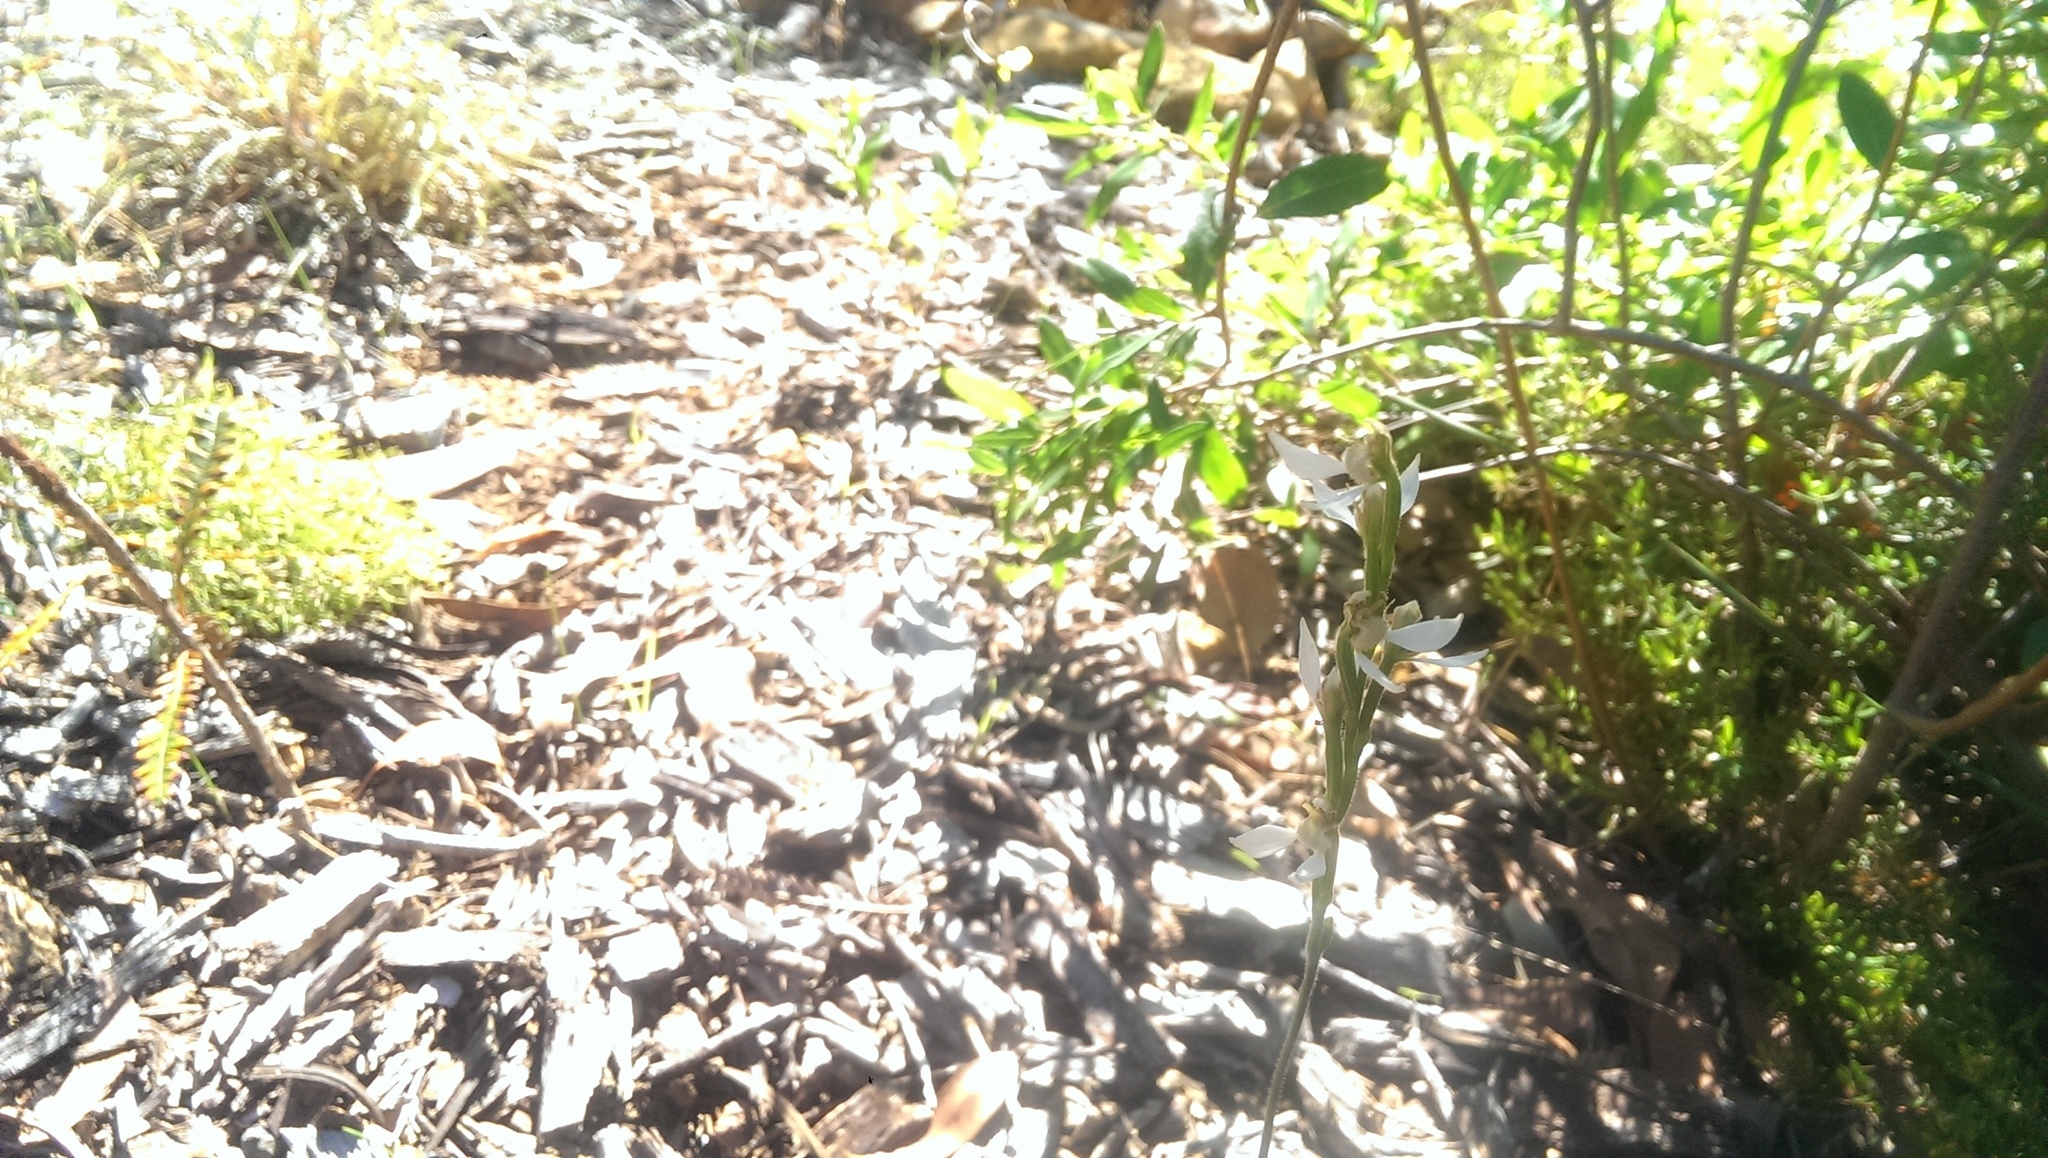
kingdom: Plantae
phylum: Tracheophyta
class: Liliopsida
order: Asparagales
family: Orchidaceae
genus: Eriochilus
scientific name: Eriochilus dilatatus
